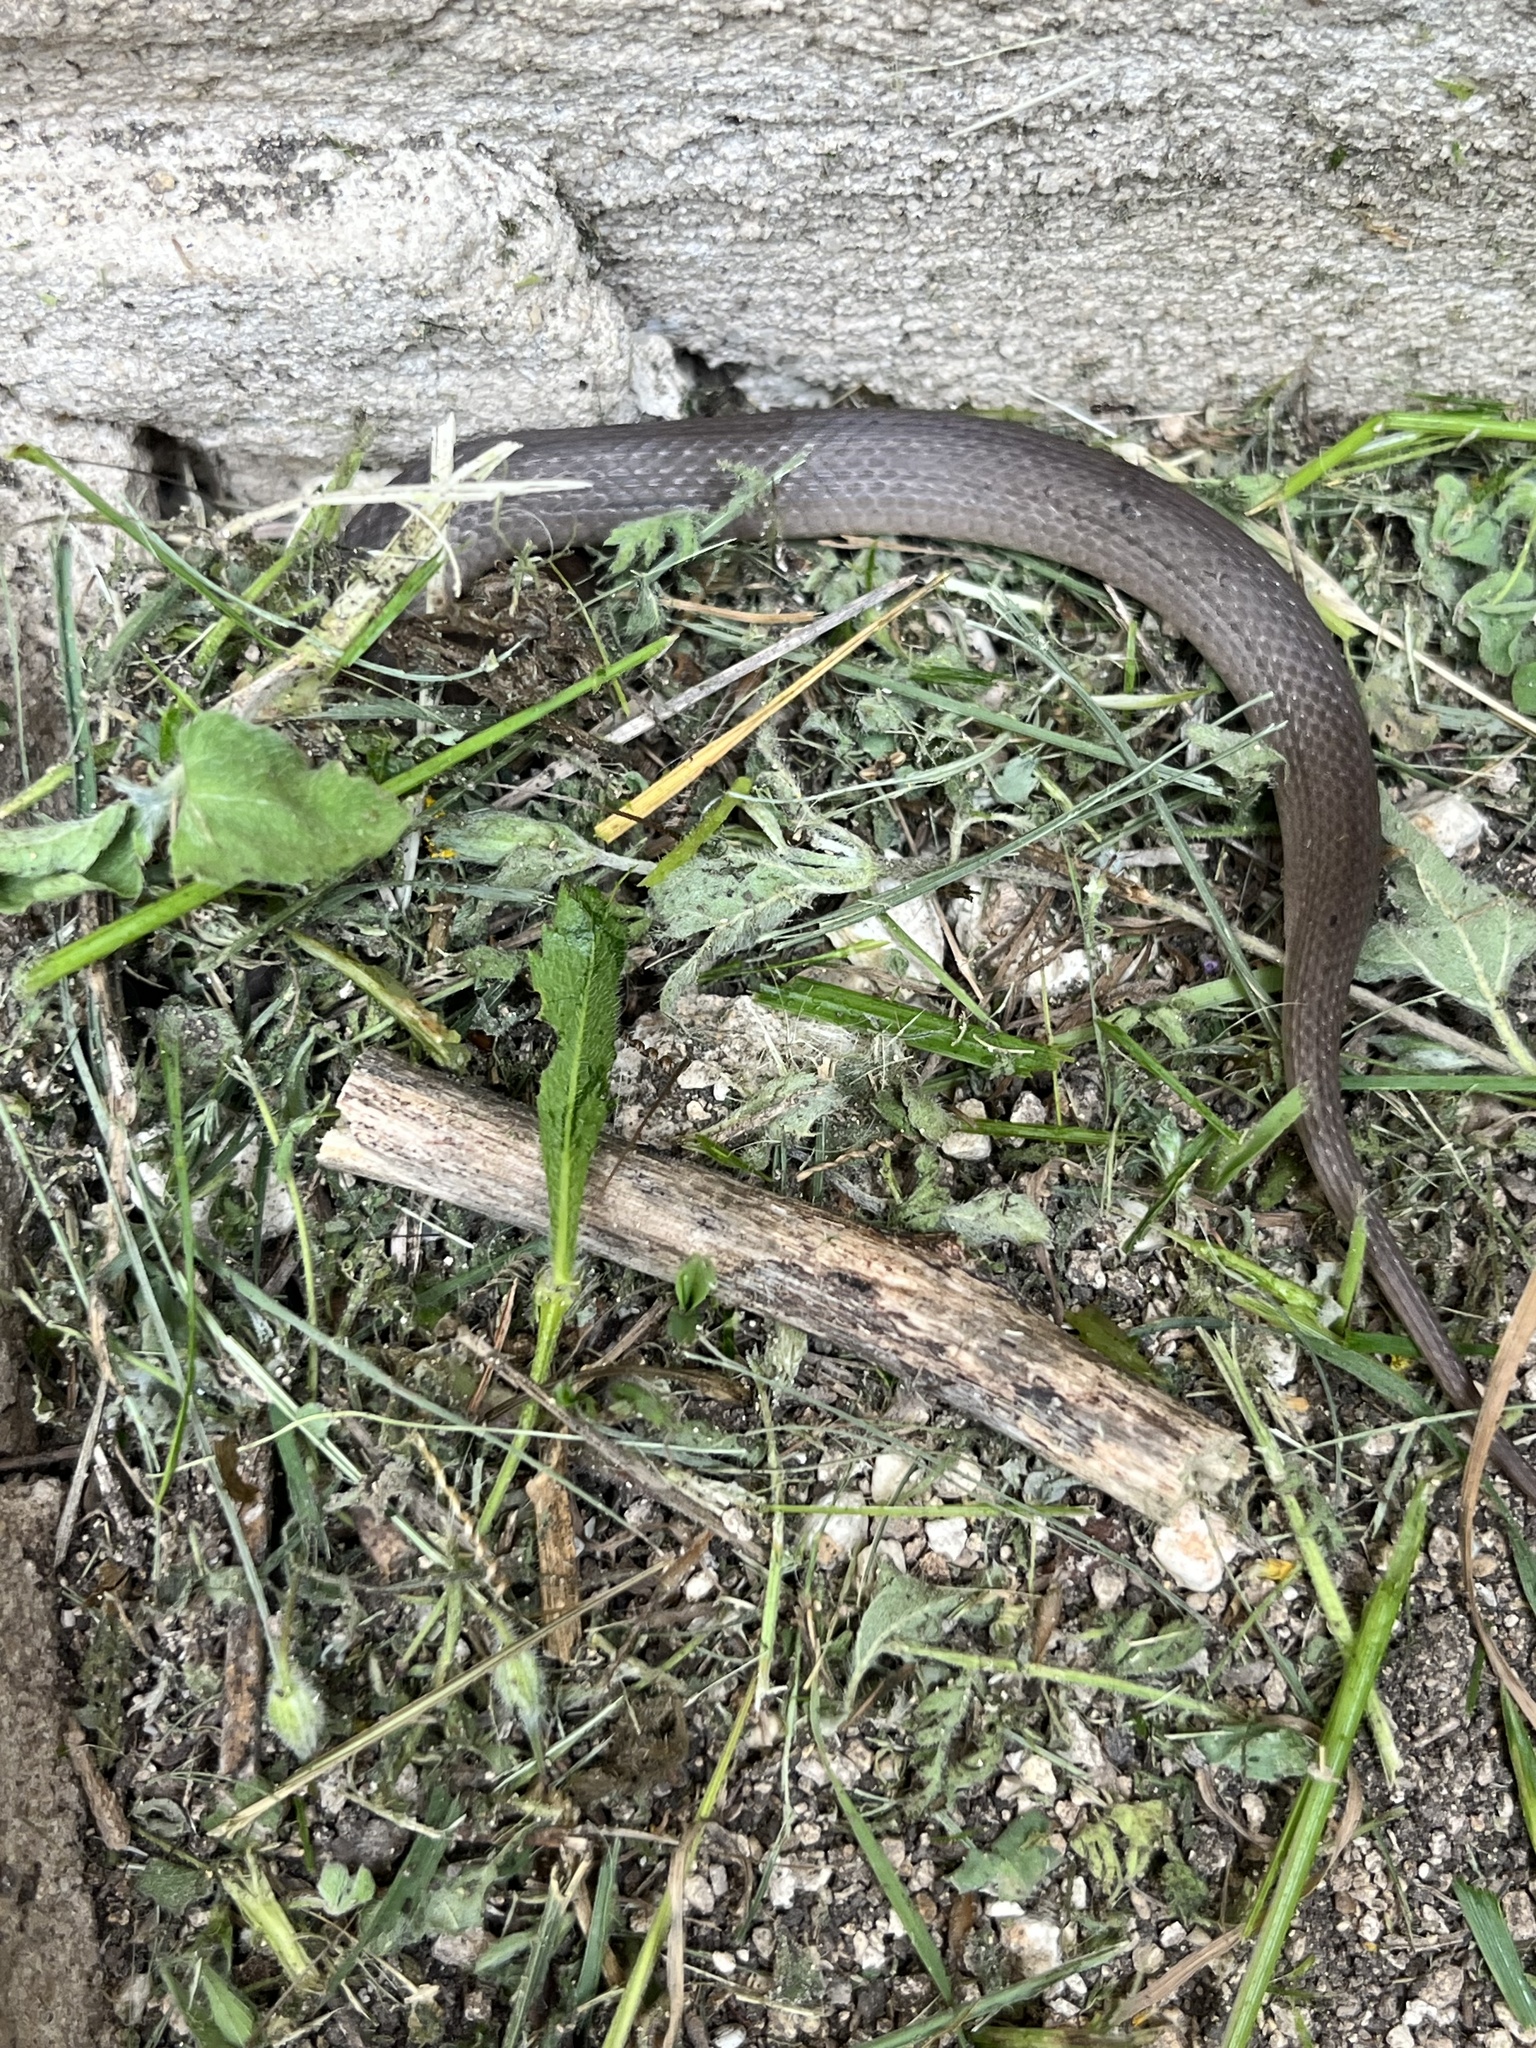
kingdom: Animalia
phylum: Chordata
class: Squamata
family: Colubridae
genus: Haldea
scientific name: Haldea striatula
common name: Rough earth snake
